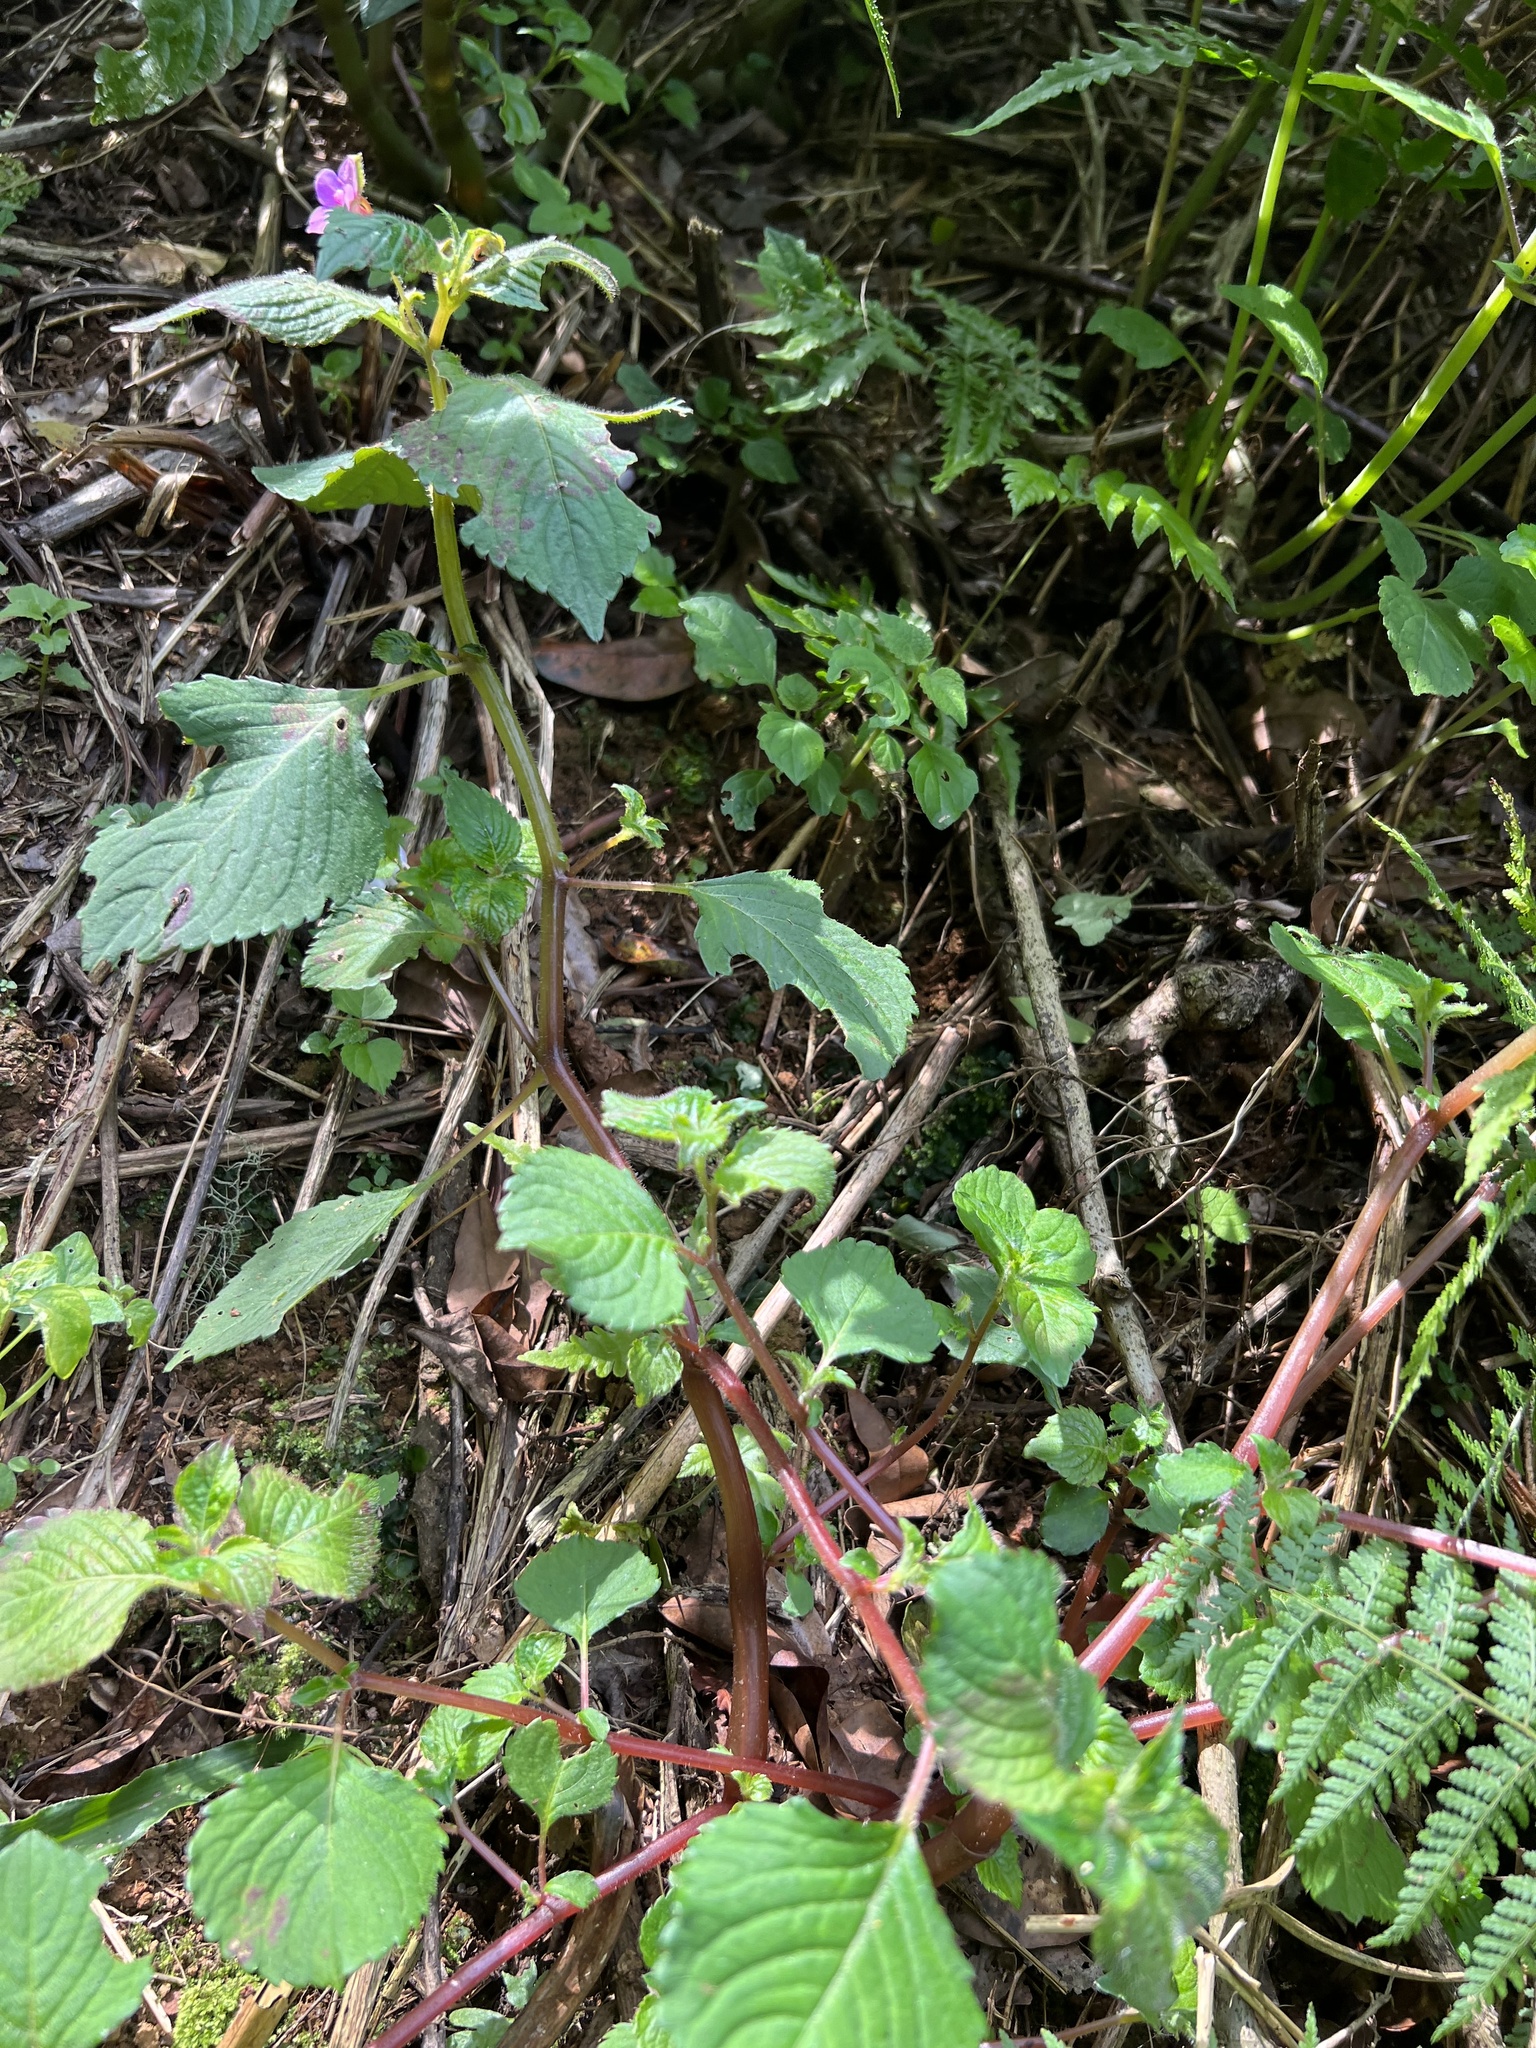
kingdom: Plantae
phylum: Tracheophyta
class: Magnoliopsida
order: Ericales
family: Balsaminaceae
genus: Impatiens
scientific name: Impatiens sylvicola
